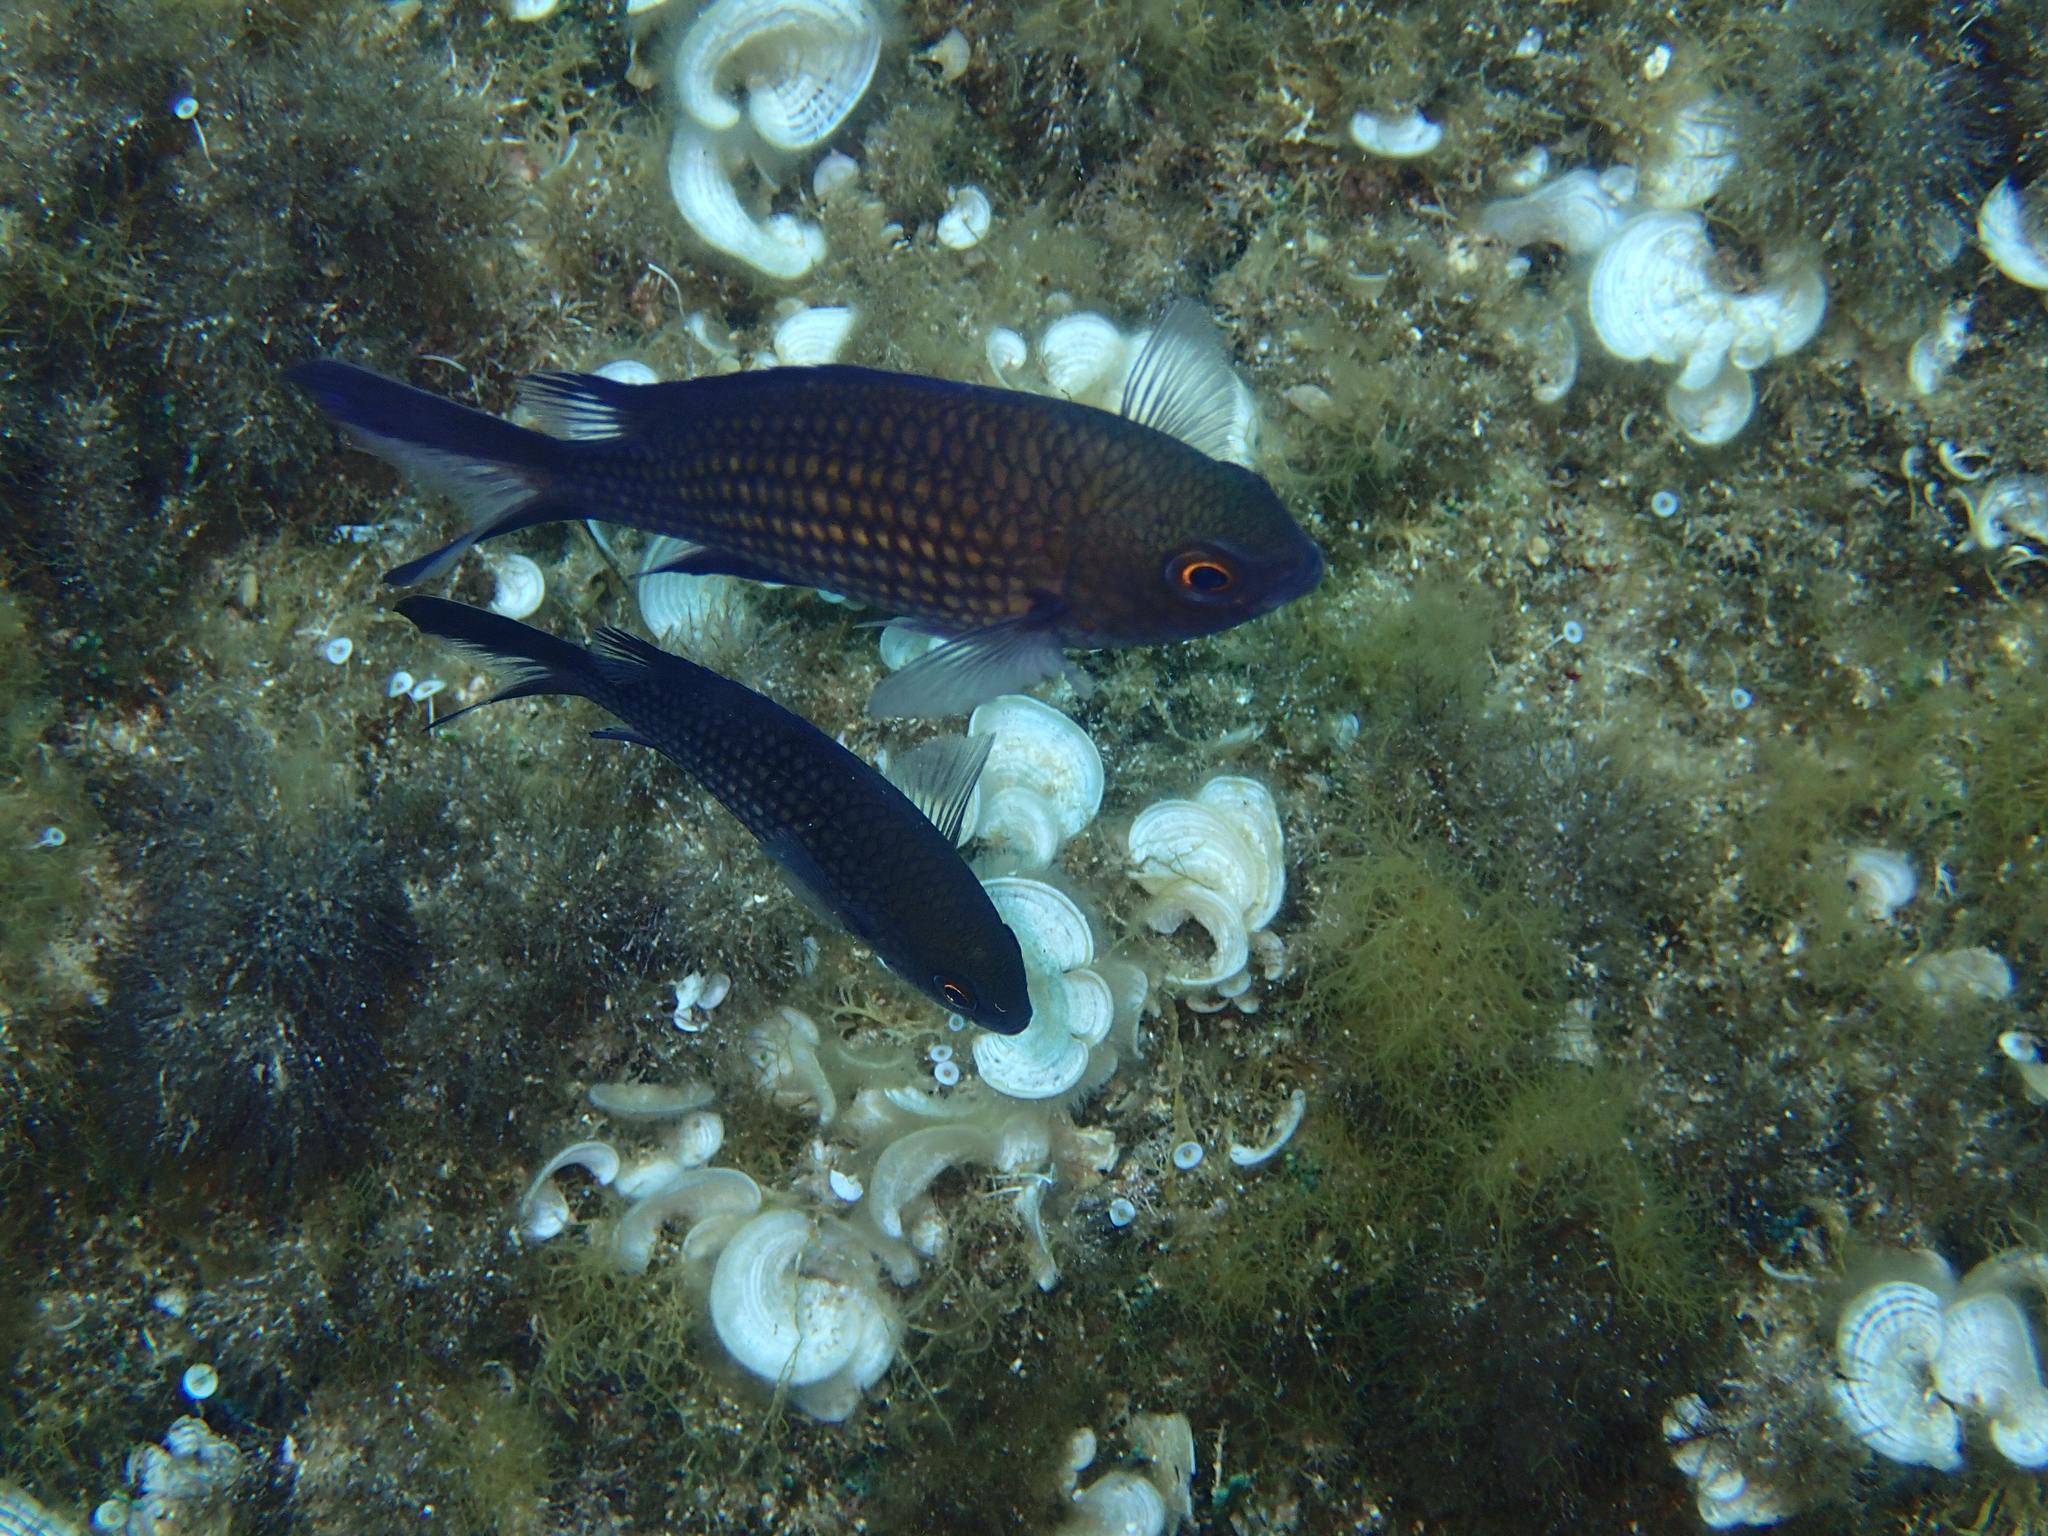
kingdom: Animalia
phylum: Chordata
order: Perciformes
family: Pomacentridae
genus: Chromis
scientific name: Chromis chromis
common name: Damselfish
